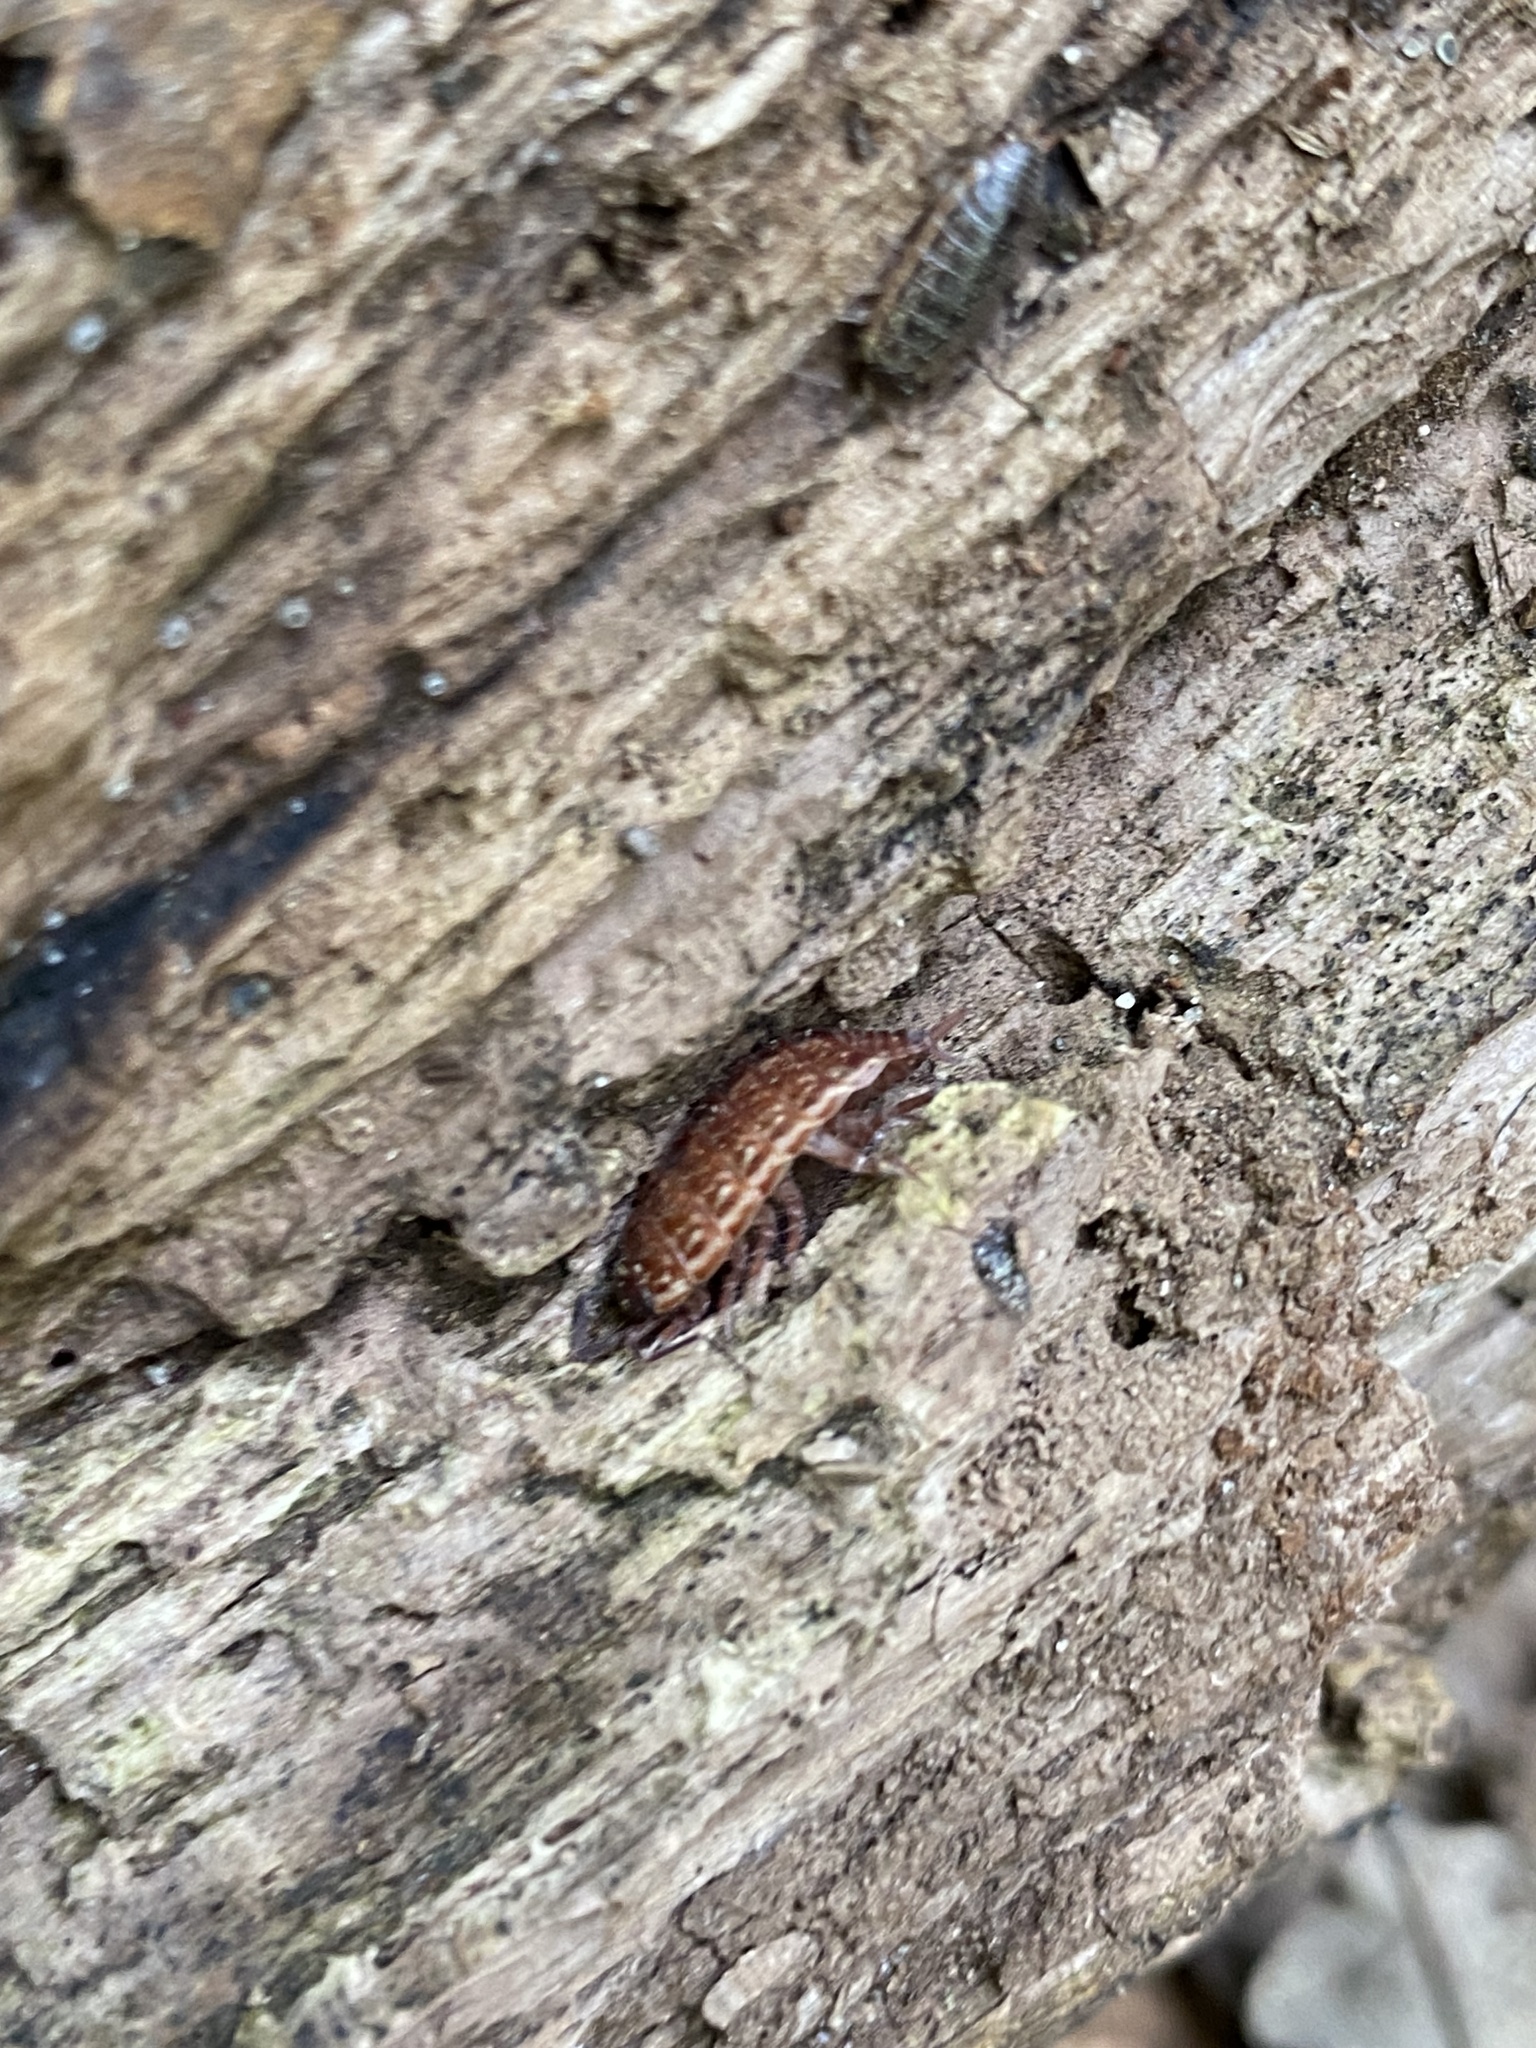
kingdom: Animalia
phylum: Arthropoda
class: Malacostraca
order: Isopoda
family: Philosciidae
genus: Philoscia
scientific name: Philoscia muscorum
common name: Common striped woodlouse
